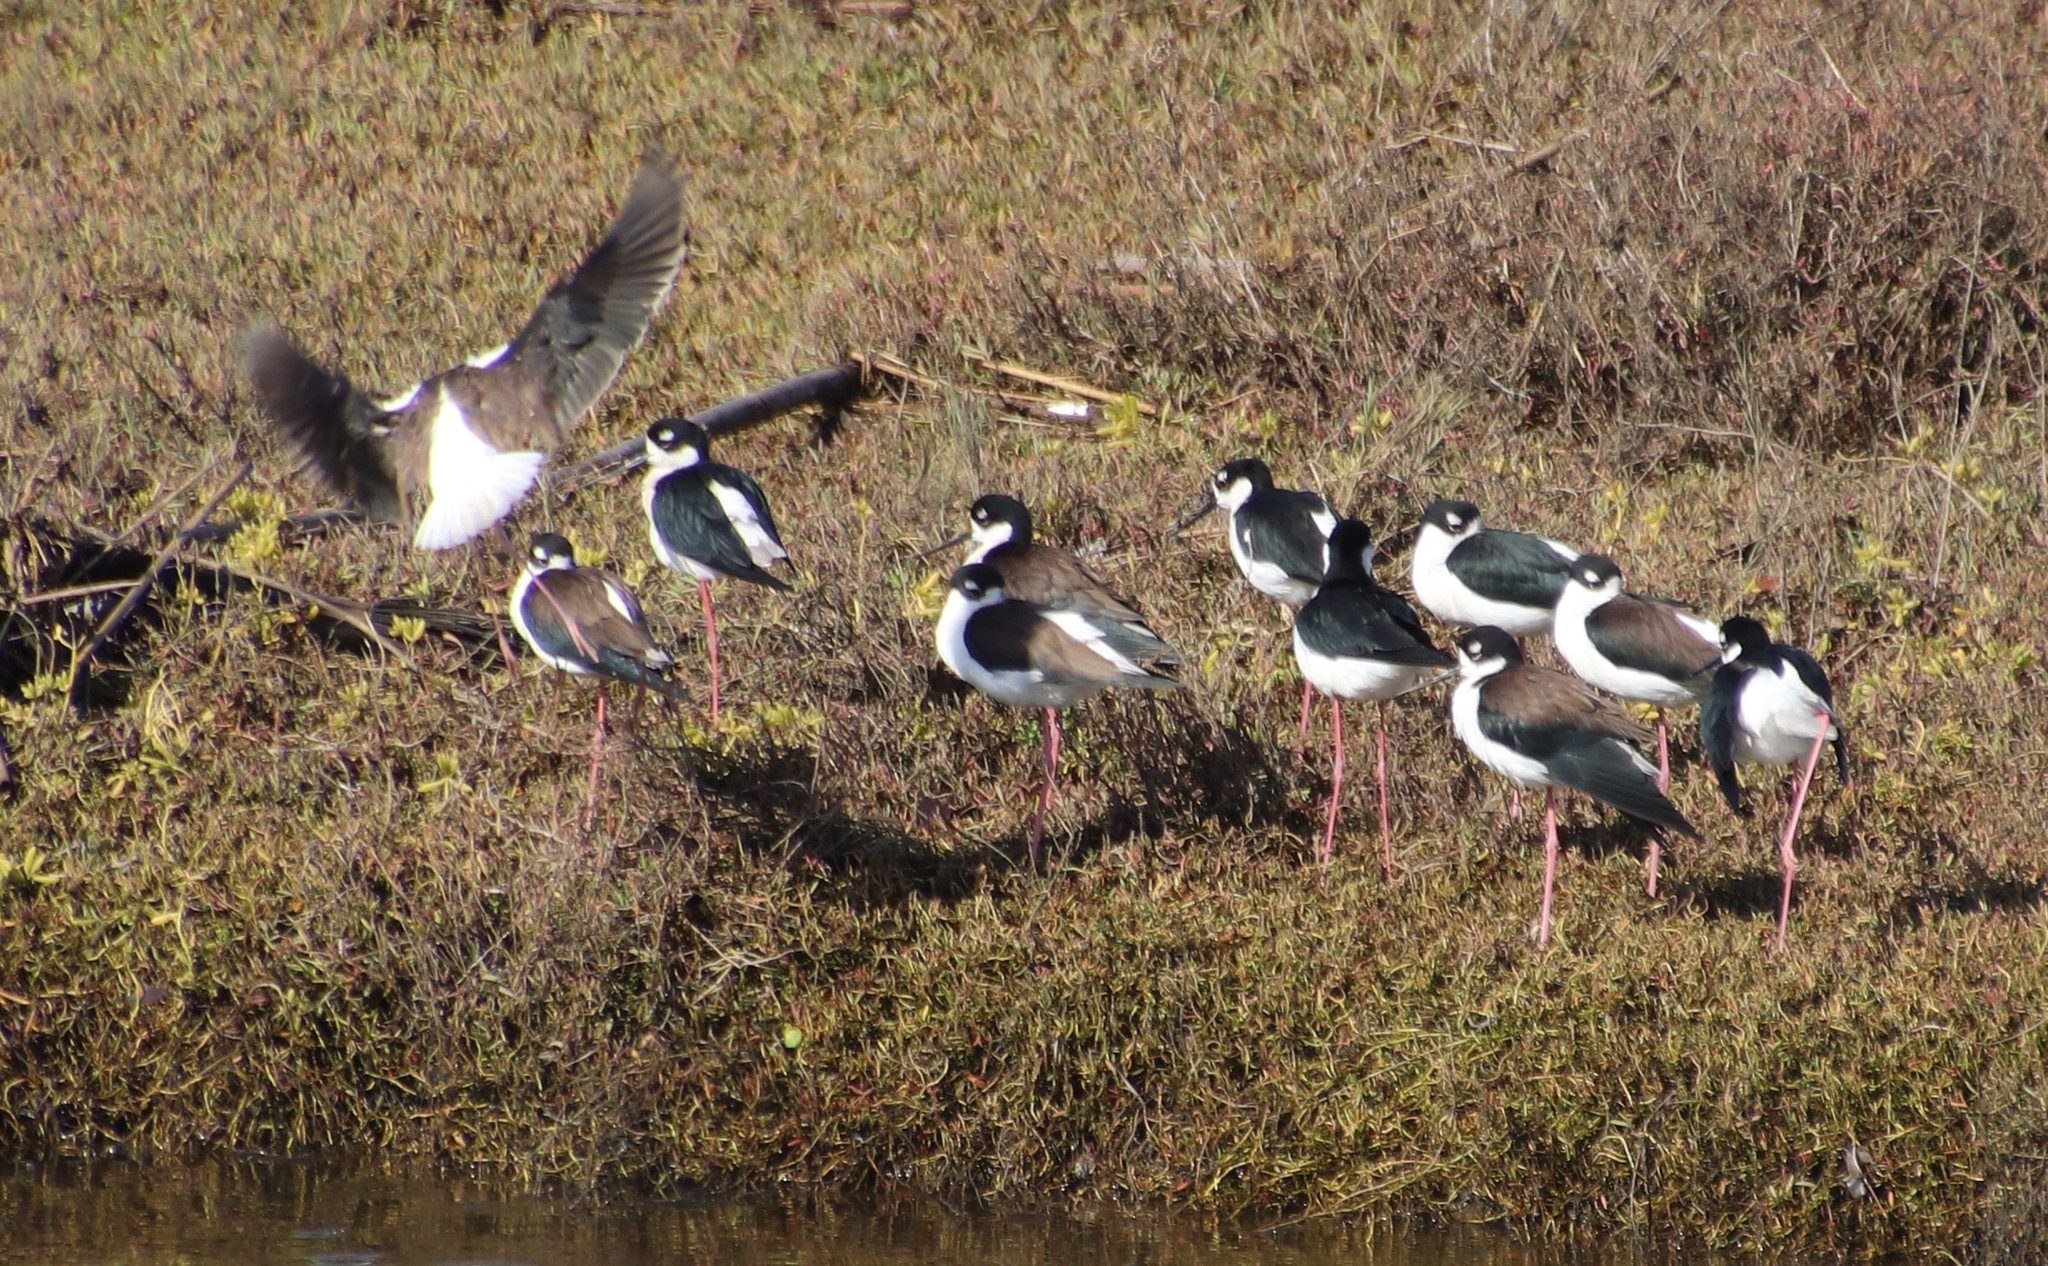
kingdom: Animalia
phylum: Chordata
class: Aves
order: Charadriiformes
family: Recurvirostridae
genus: Himantopus
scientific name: Himantopus mexicanus
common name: Black-necked stilt
